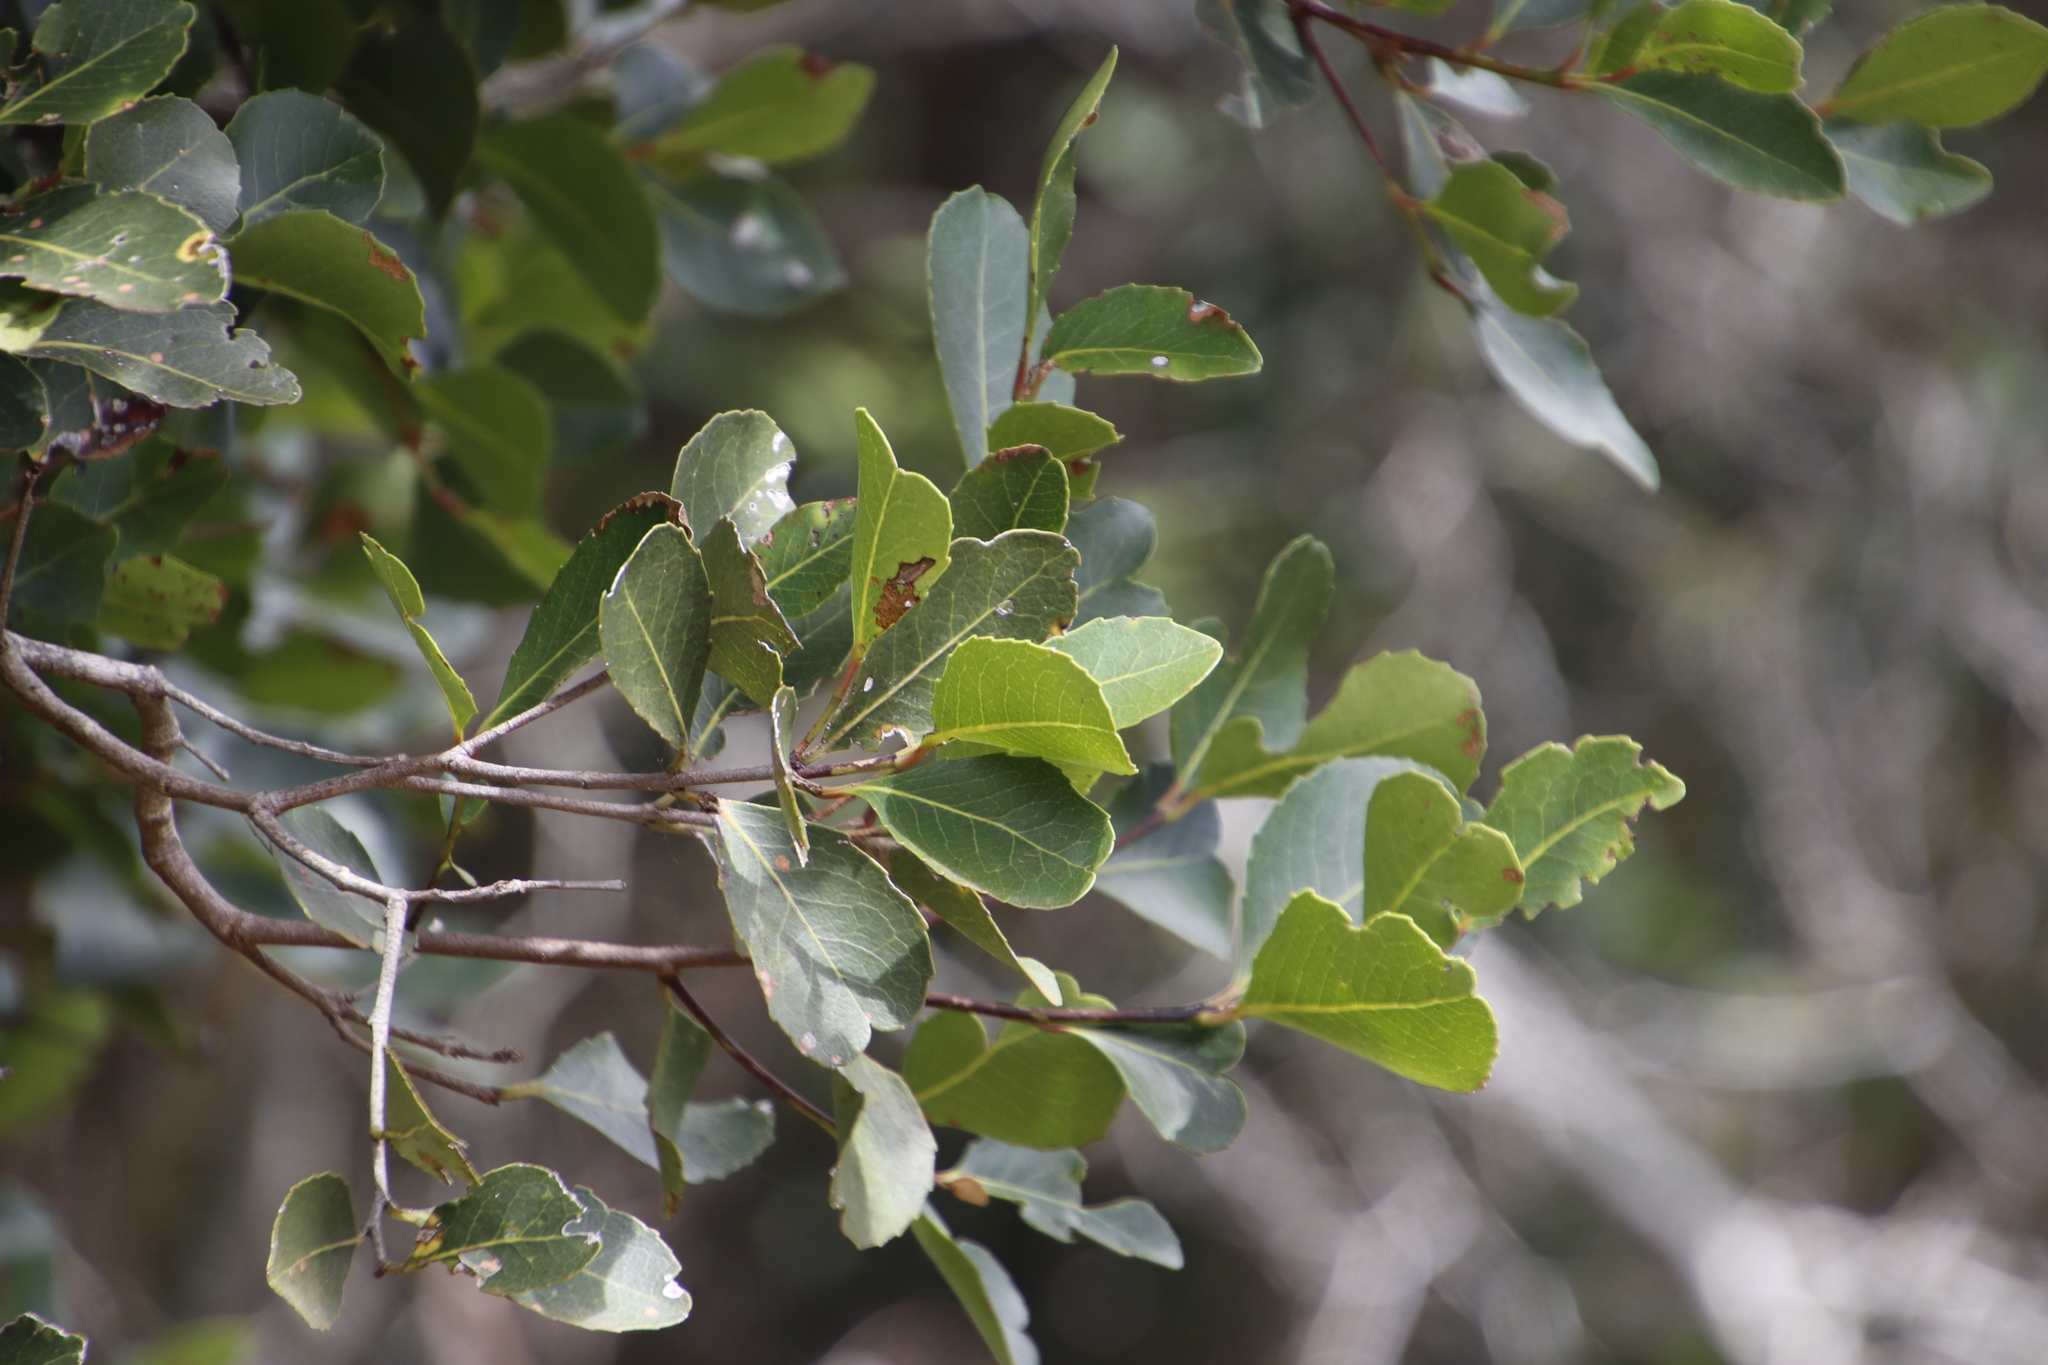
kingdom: Plantae
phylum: Tracheophyta
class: Magnoliopsida
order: Celastrales
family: Celastraceae
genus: Cassine
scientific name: Cassine peragua
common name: Cape saffron
